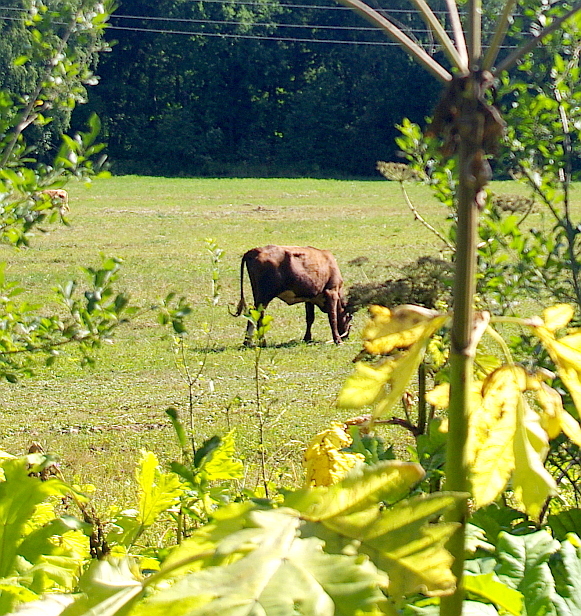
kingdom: Plantae
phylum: Tracheophyta
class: Magnoliopsida
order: Apiales
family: Apiaceae
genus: Heracleum
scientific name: Heracleum sosnowskyi
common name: Sosnowsky's hogweed
